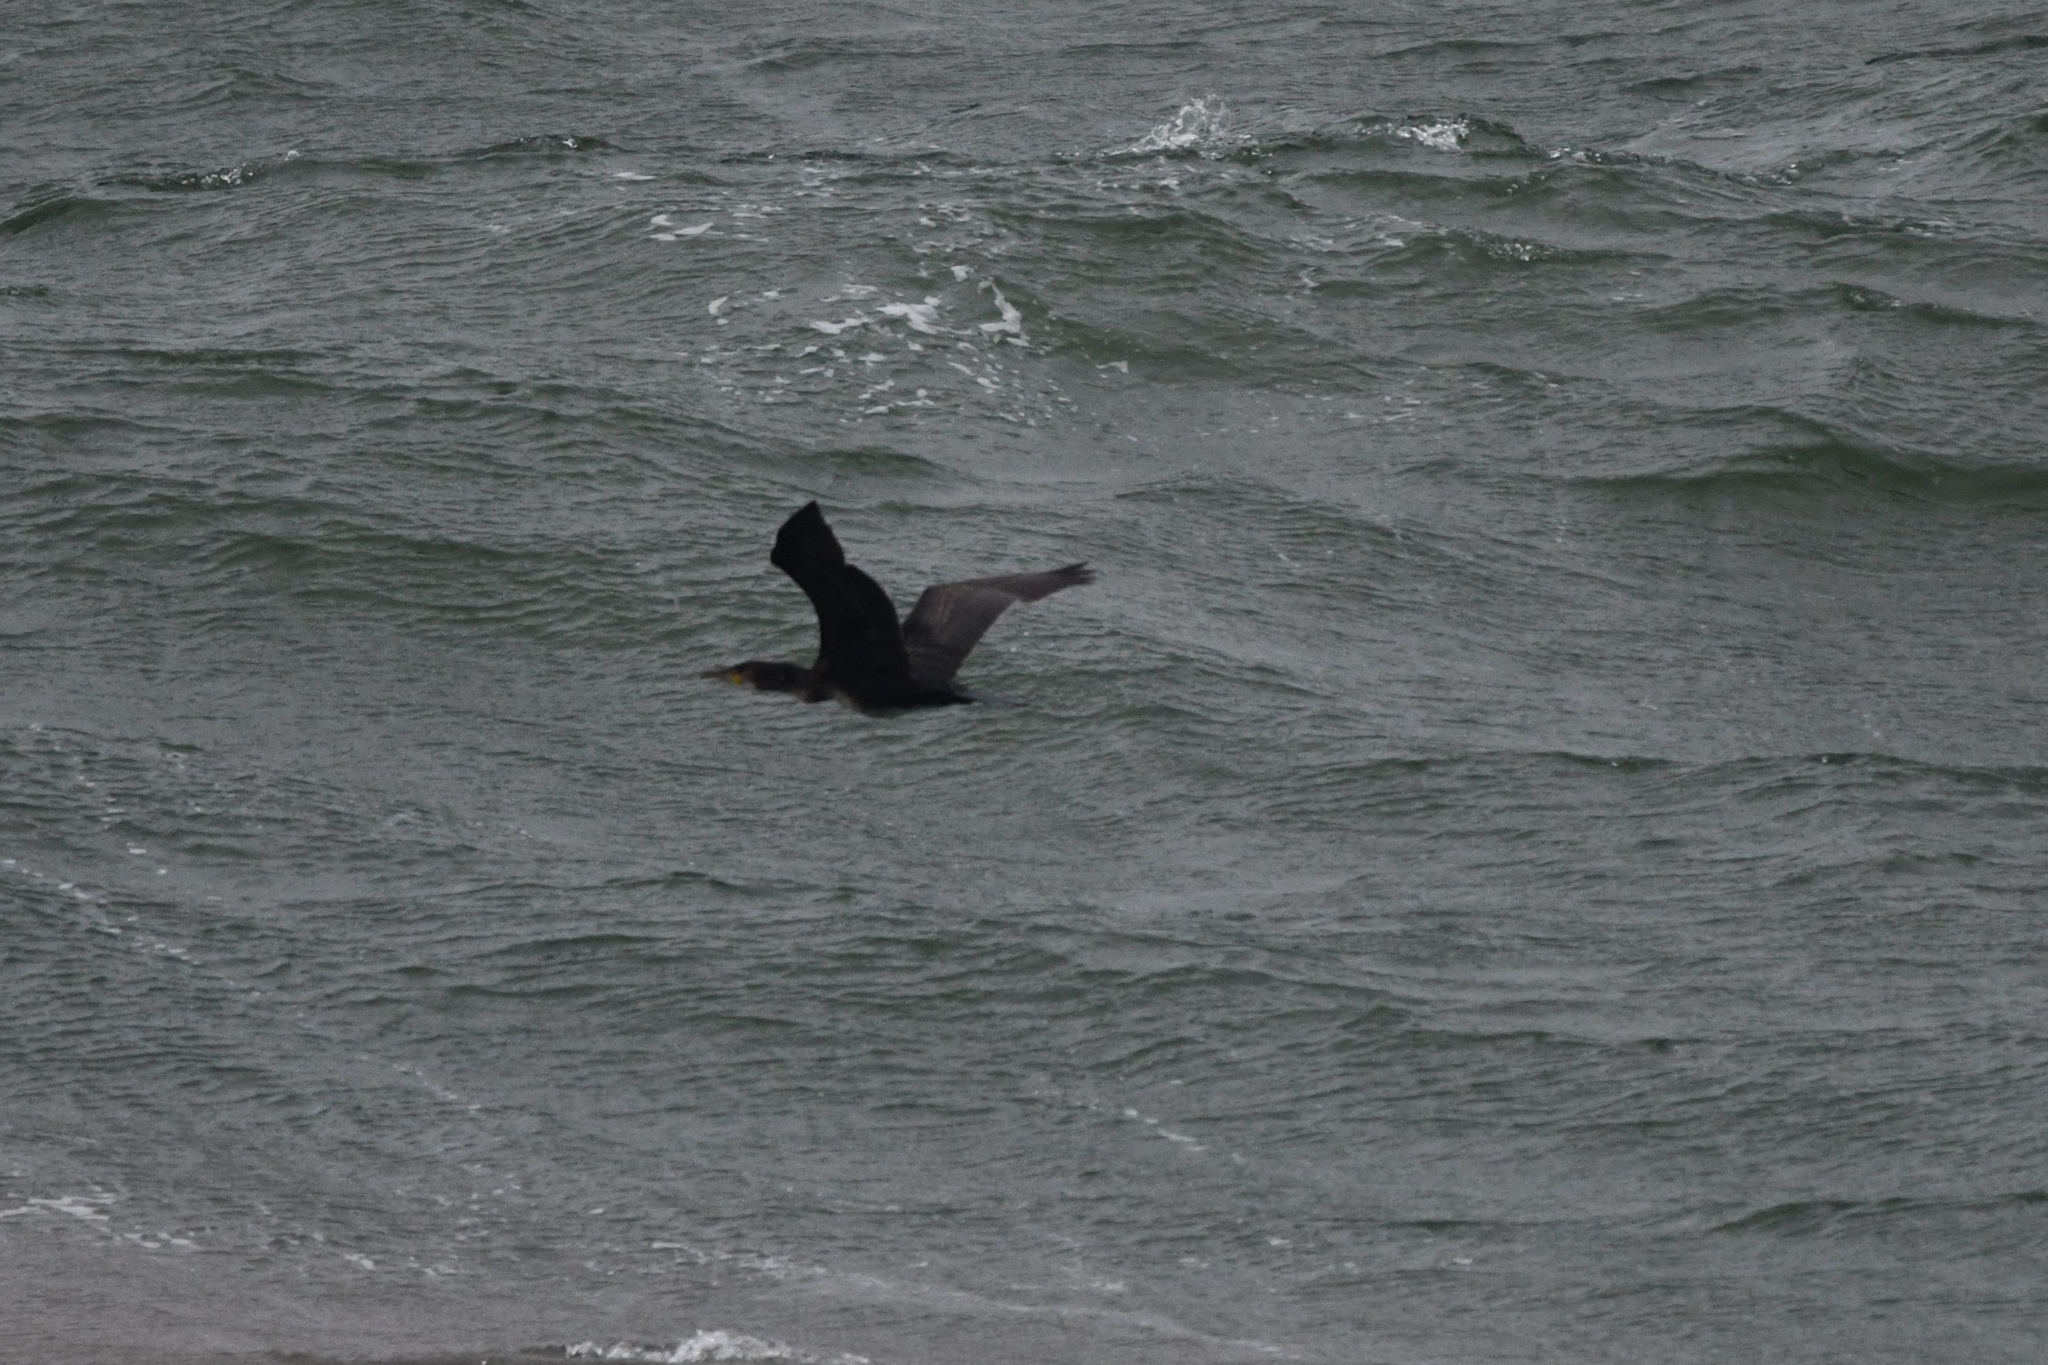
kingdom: Animalia
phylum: Chordata
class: Aves
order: Suliformes
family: Phalacrocoracidae
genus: Phalacrocorax
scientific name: Phalacrocorax carbo
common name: Great cormorant
